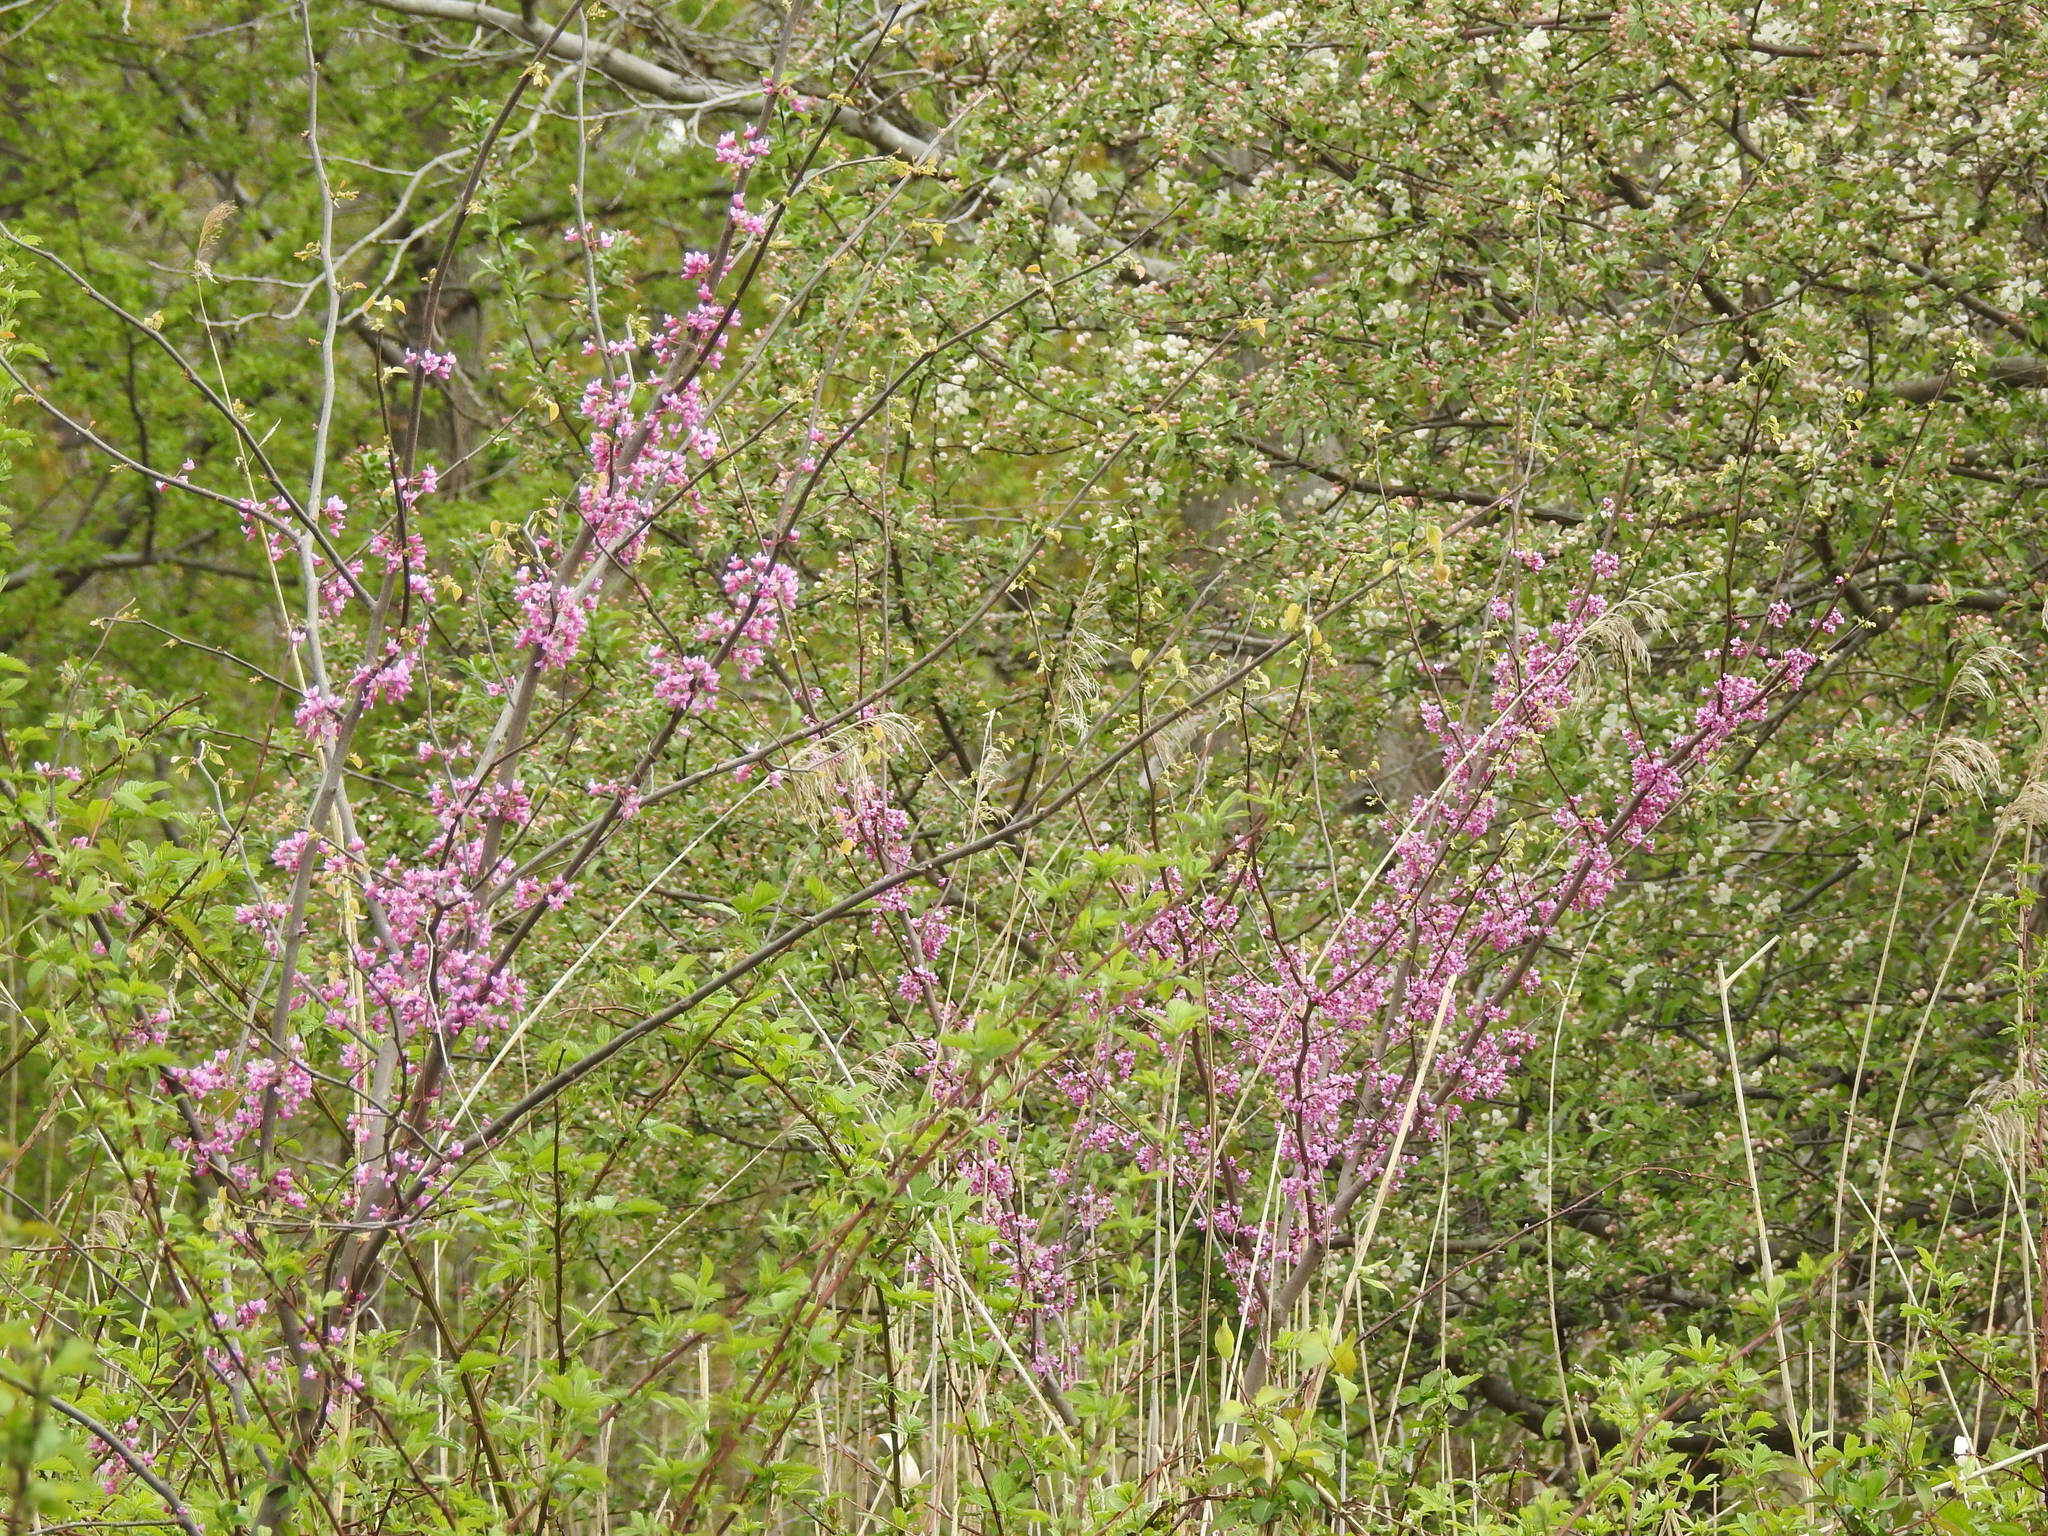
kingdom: Plantae
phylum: Tracheophyta
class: Magnoliopsida
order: Fabales
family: Fabaceae
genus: Cercis
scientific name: Cercis canadensis
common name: Eastern redbud
